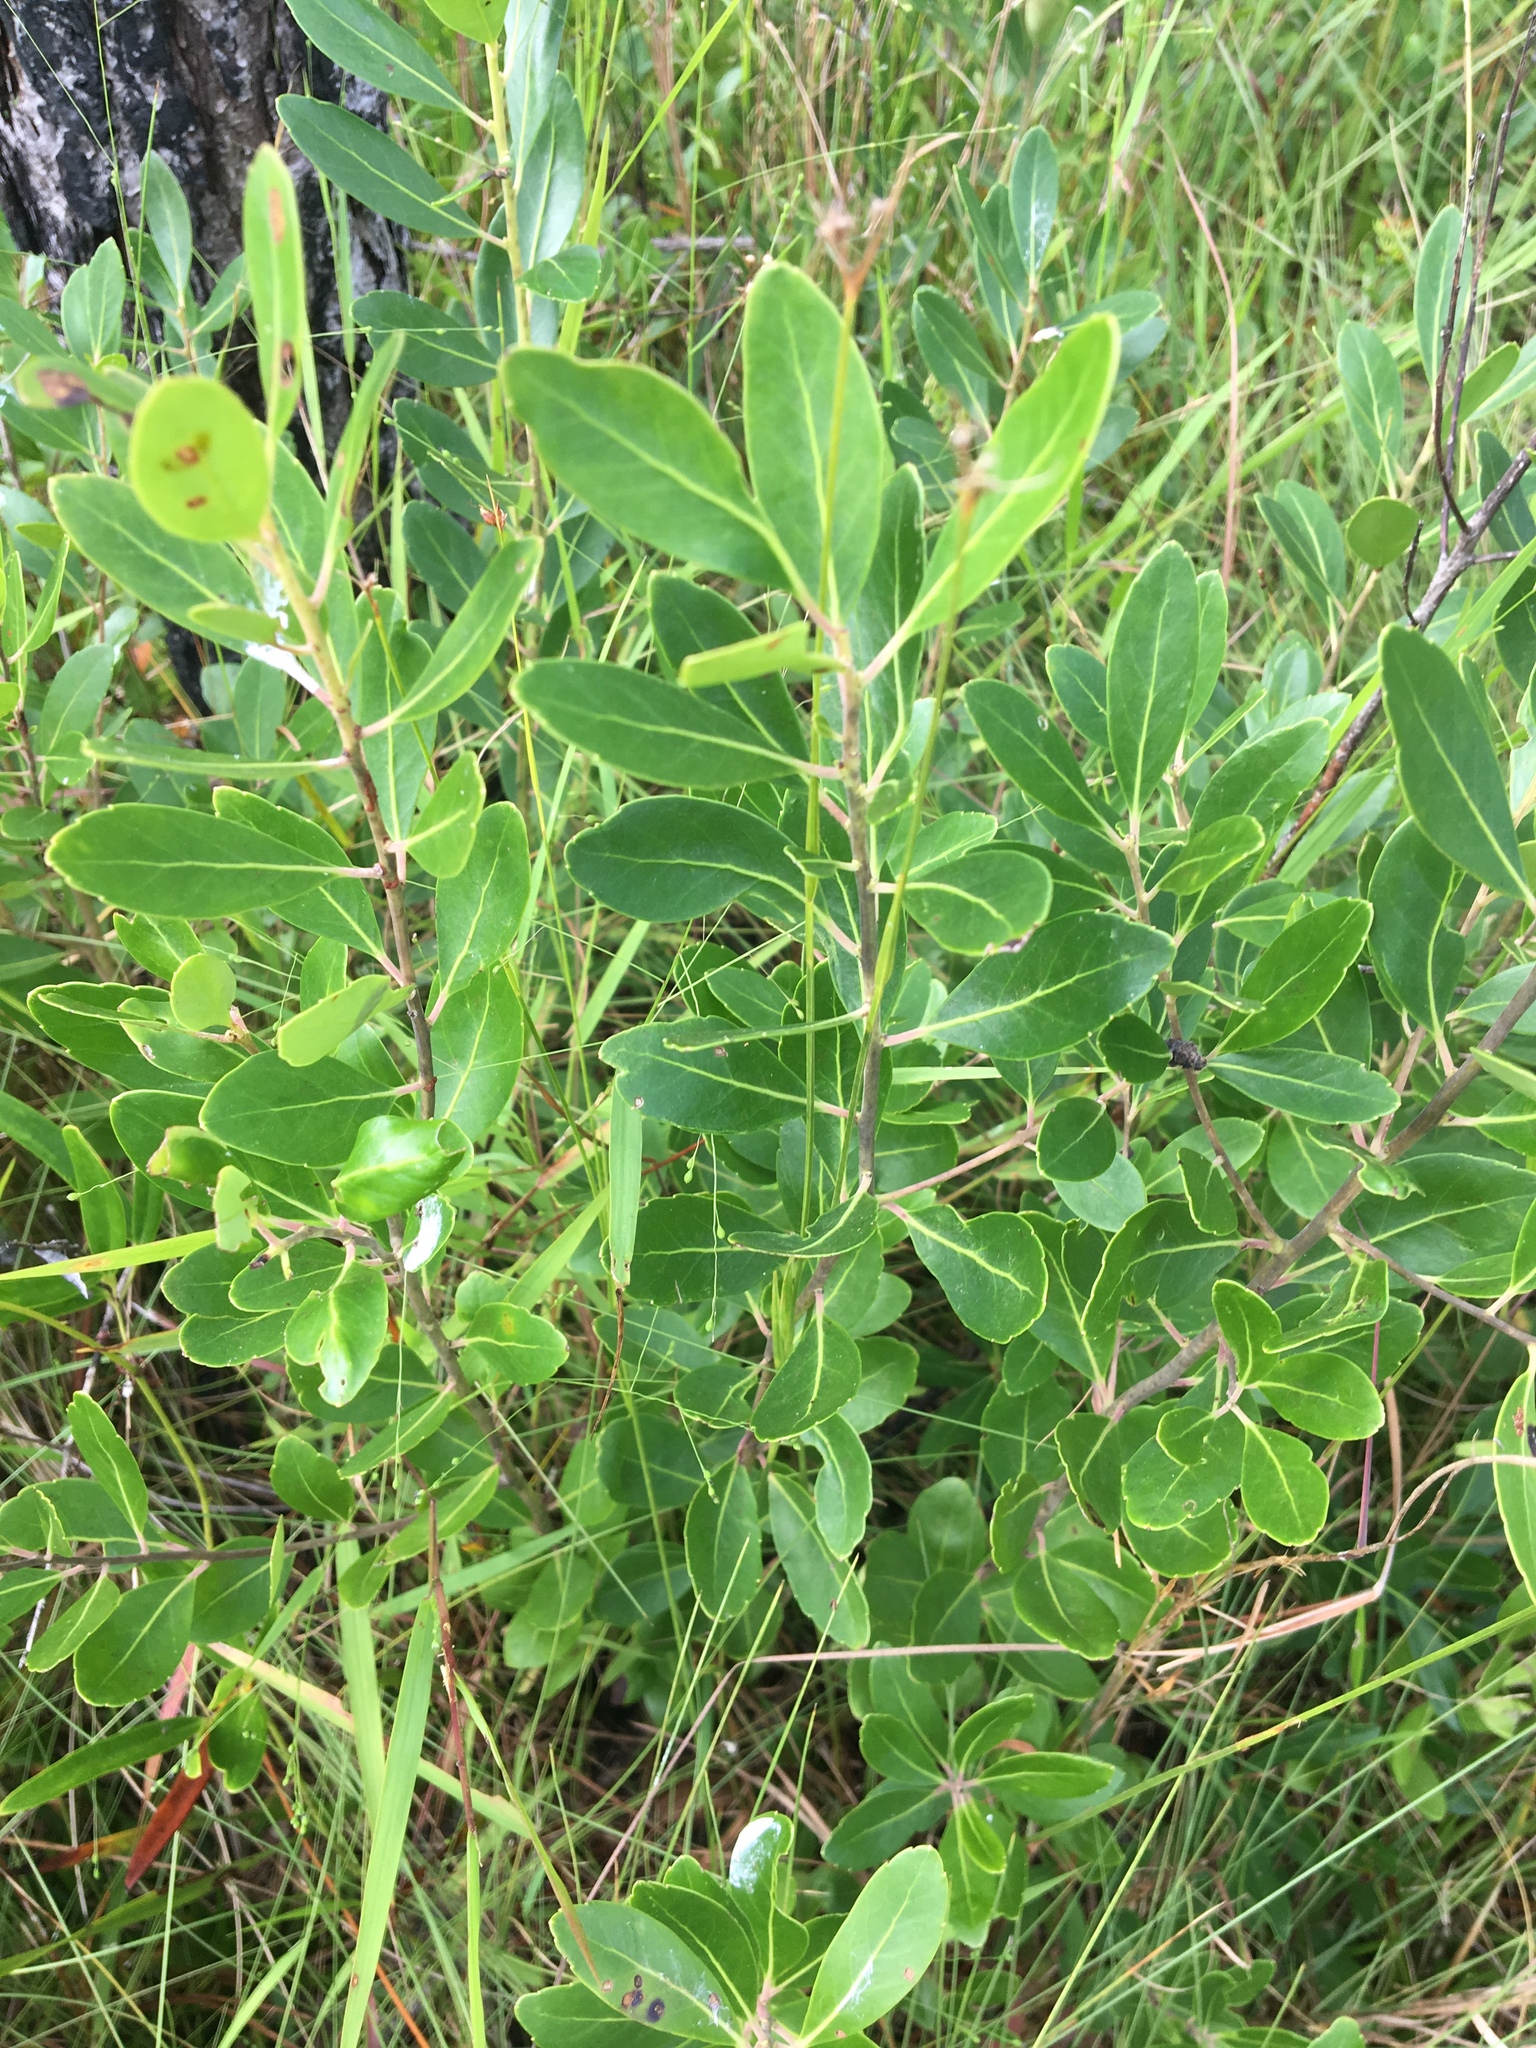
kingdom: Plantae
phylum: Tracheophyta
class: Magnoliopsida
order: Aquifoliales
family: Aquifoliaceae
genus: Ilex
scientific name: Ilex glabra
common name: Bitter gallberry
